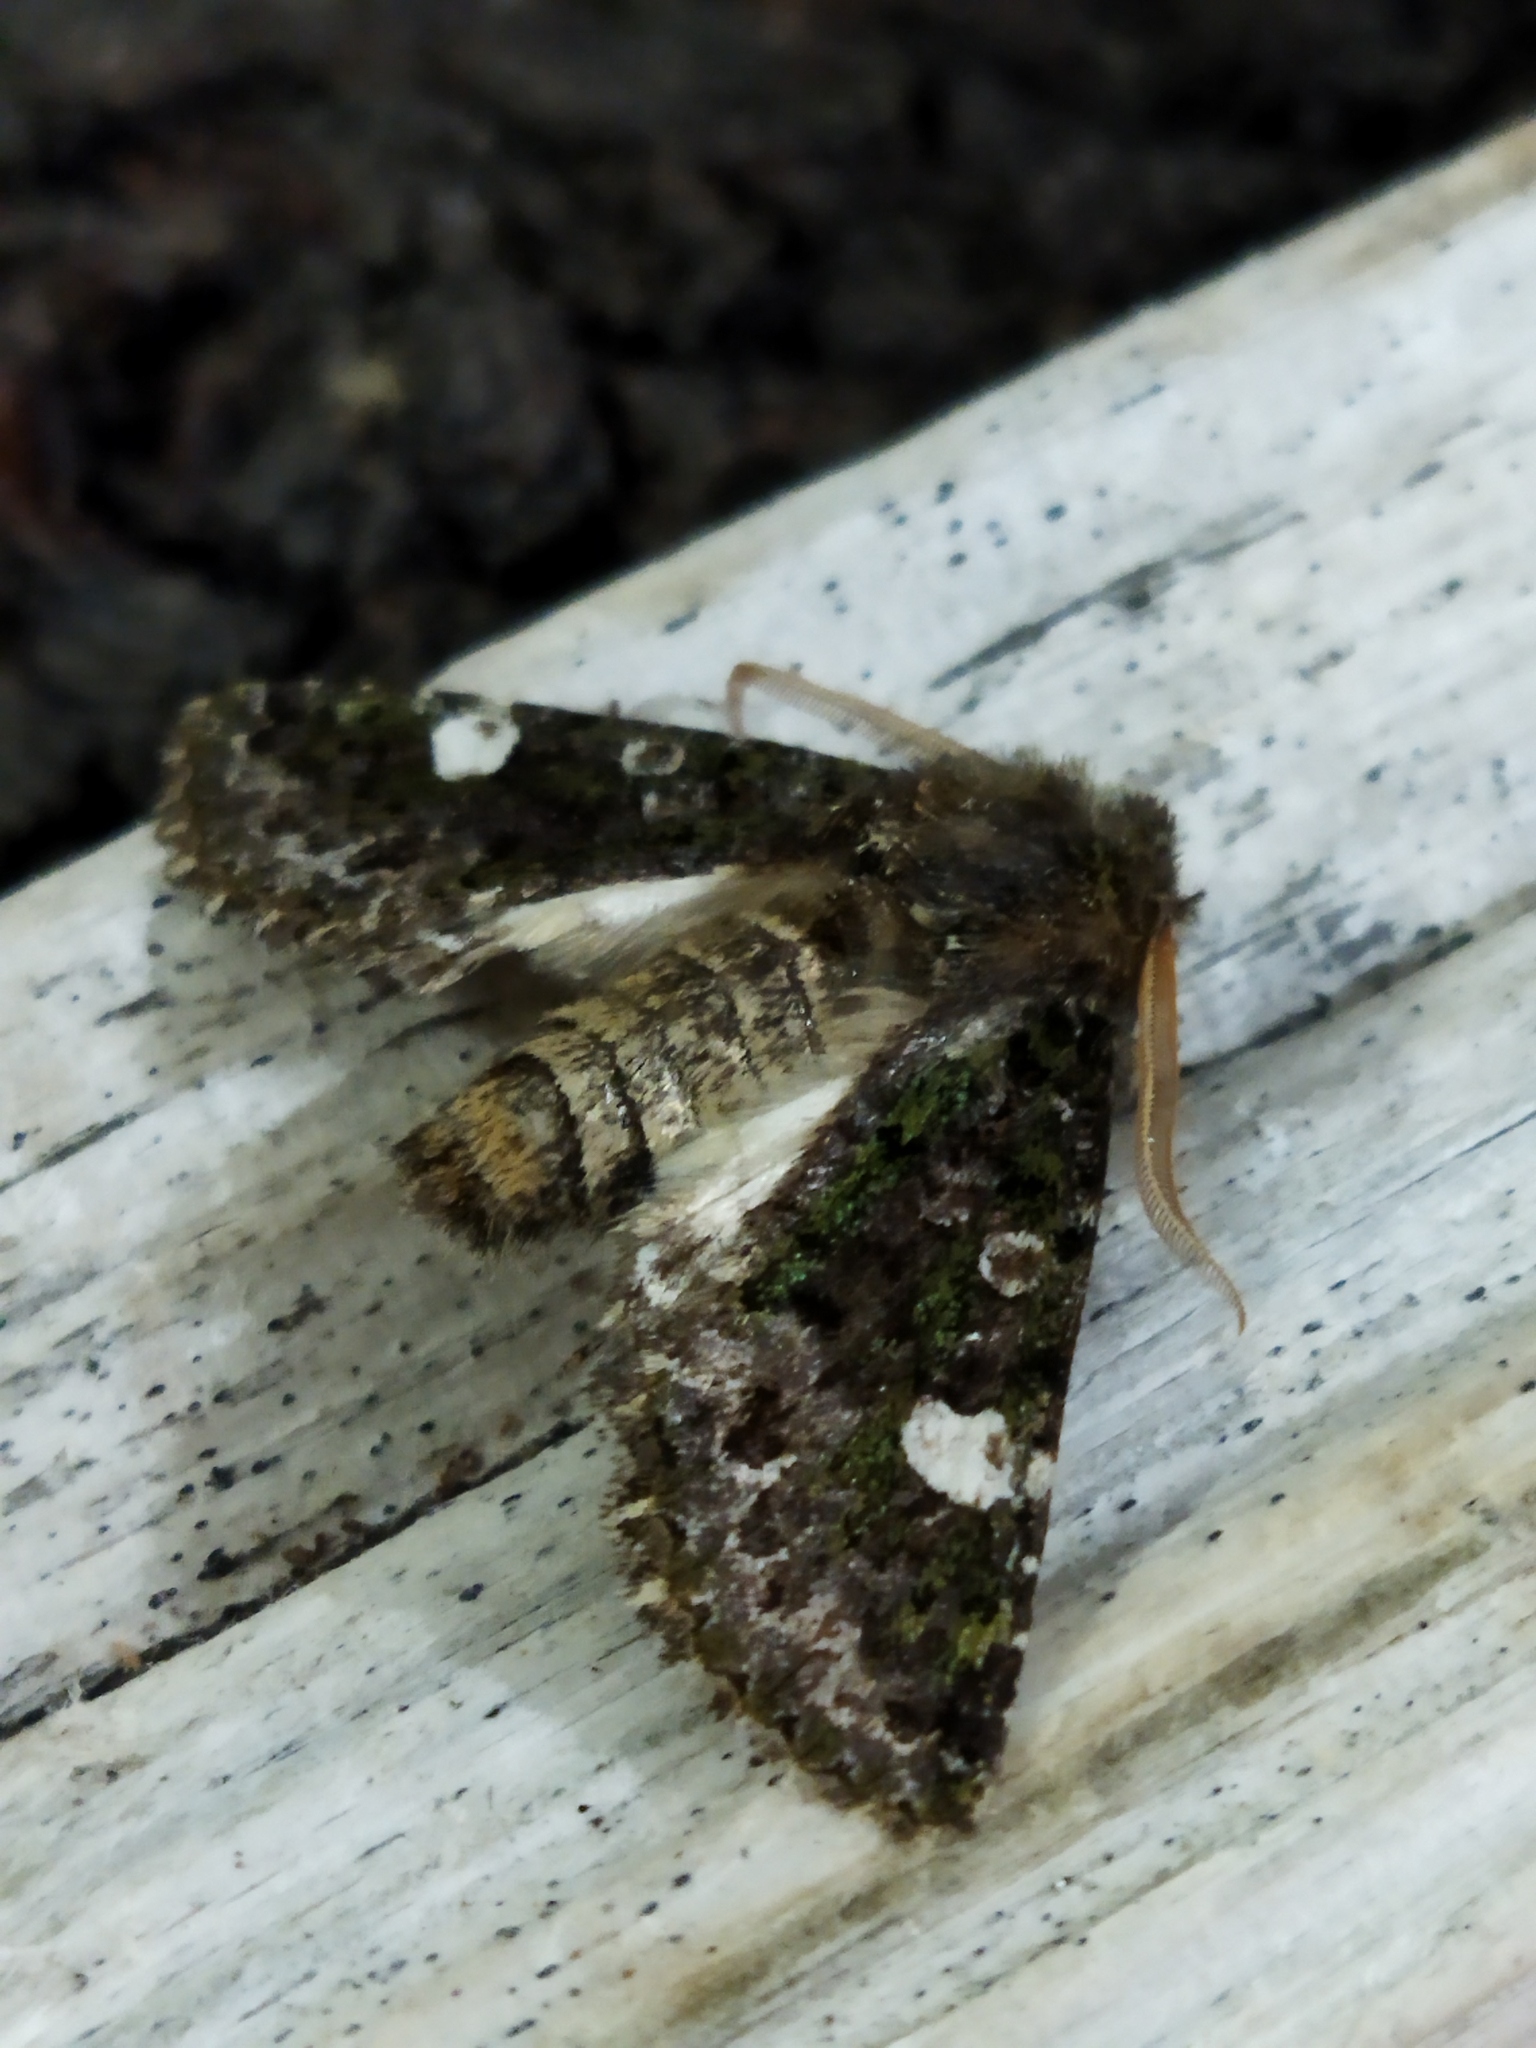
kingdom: Animalia
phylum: Arthropoda
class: Insecta
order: Lepidoptera
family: Noctuidae
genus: Valeria
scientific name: Valeria oleagina
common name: Green-brindled dot
